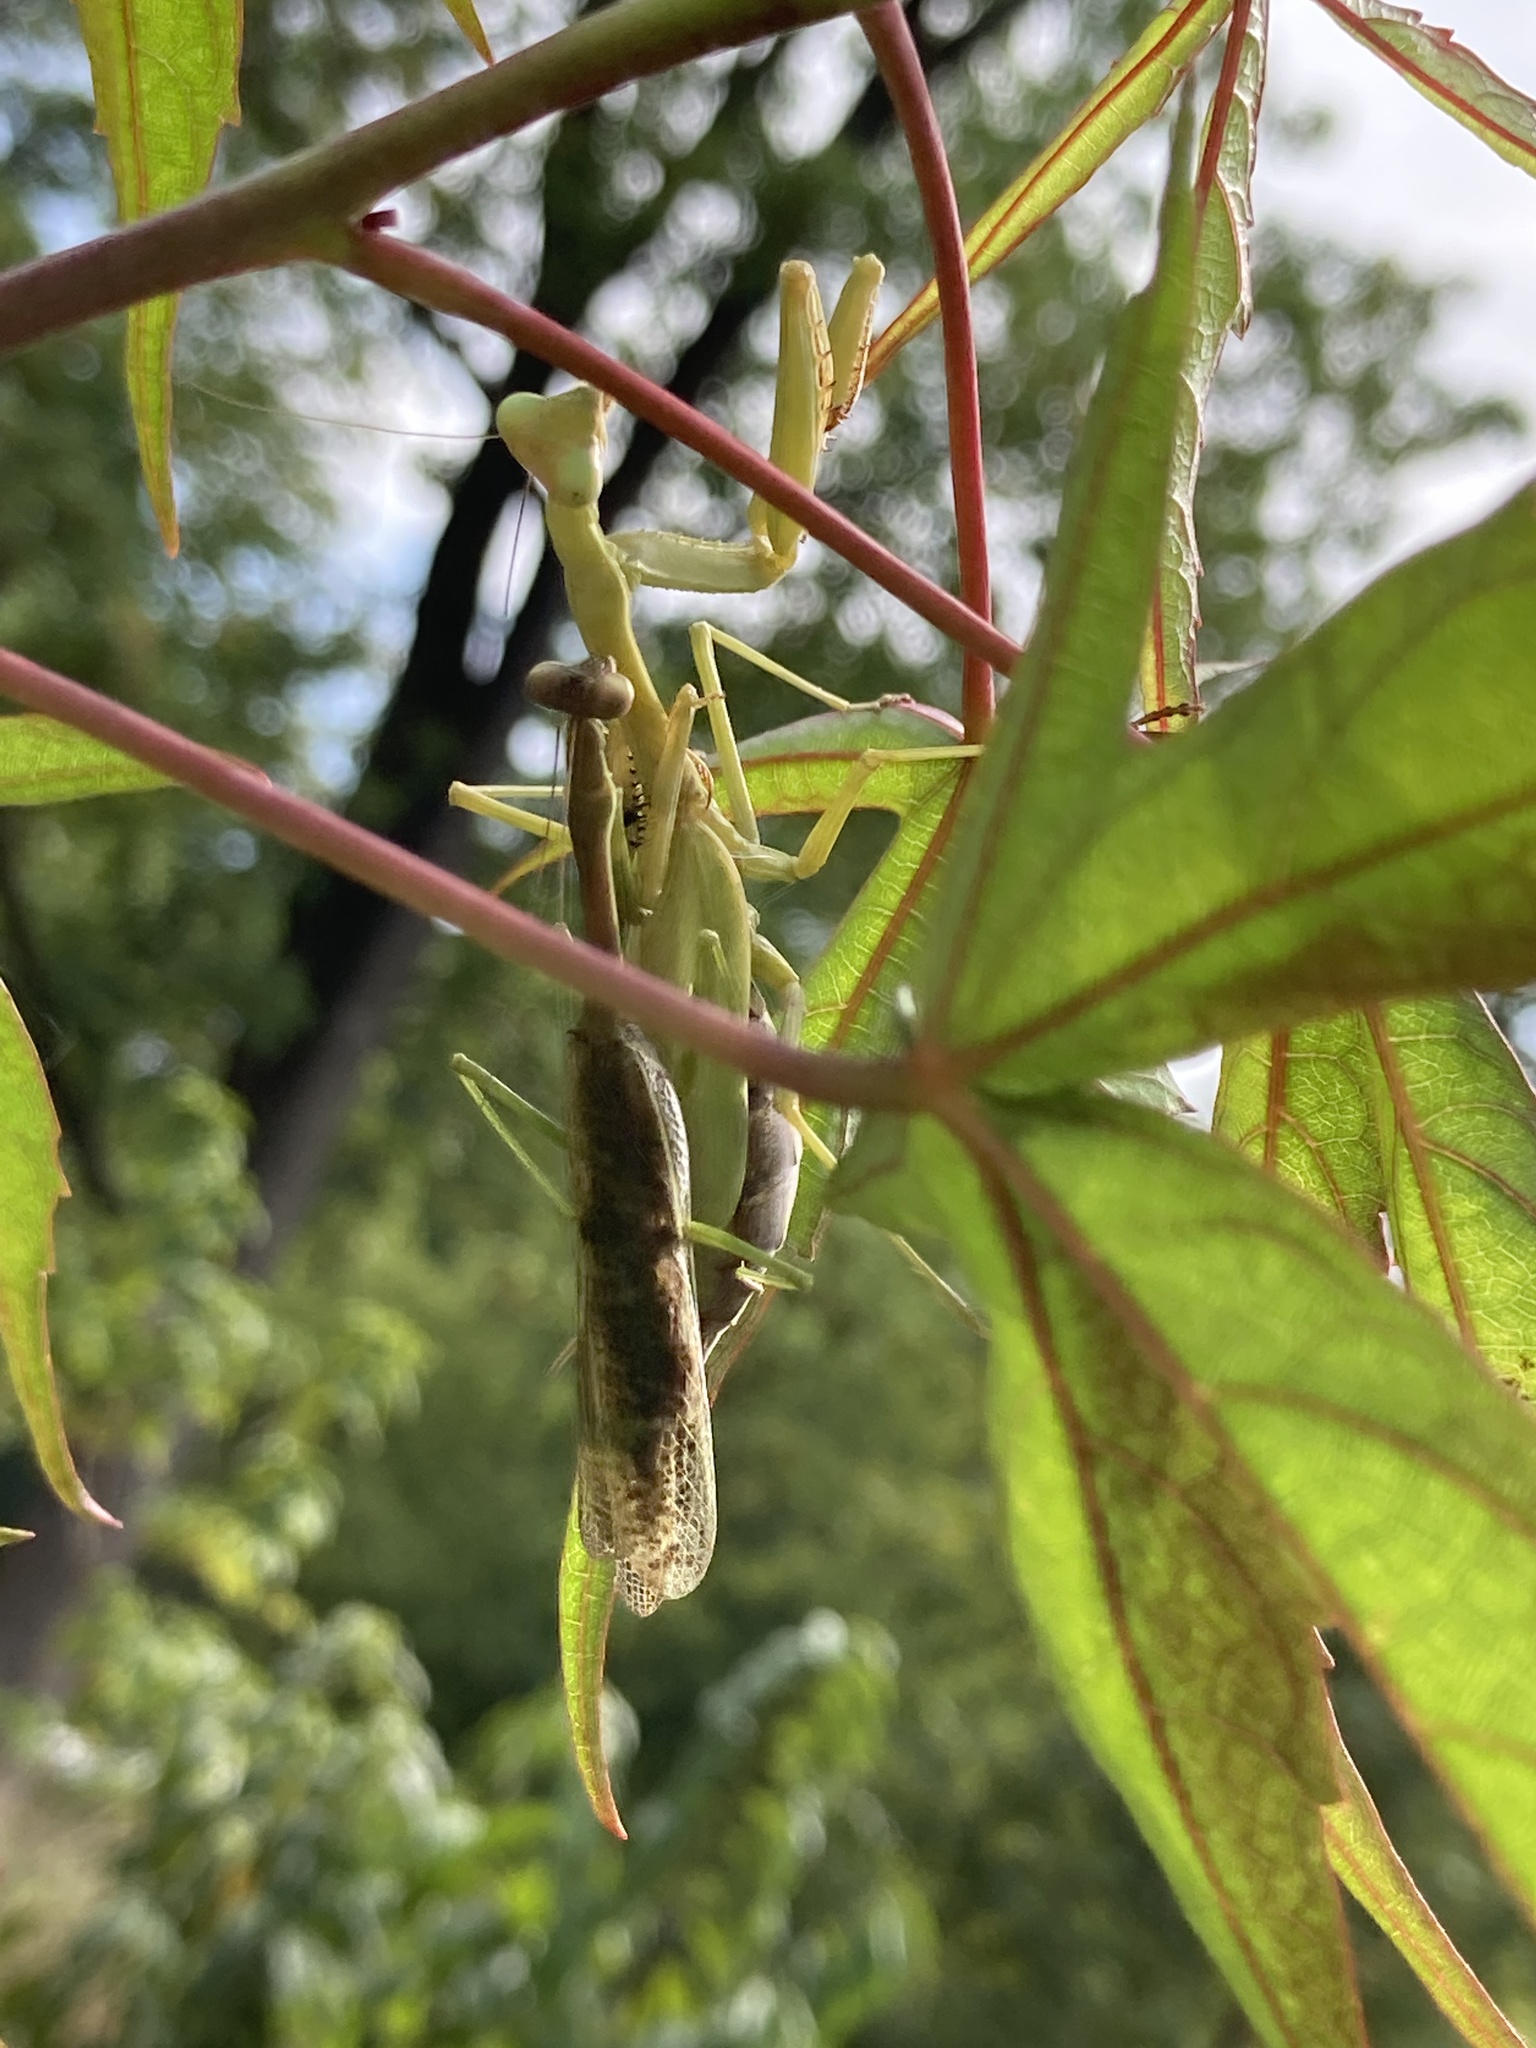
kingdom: Animalia
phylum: Arthropoda
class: Insecta
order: Mantodea
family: Mantidae
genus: Stagmomantis
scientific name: Stagmomantis carolina
